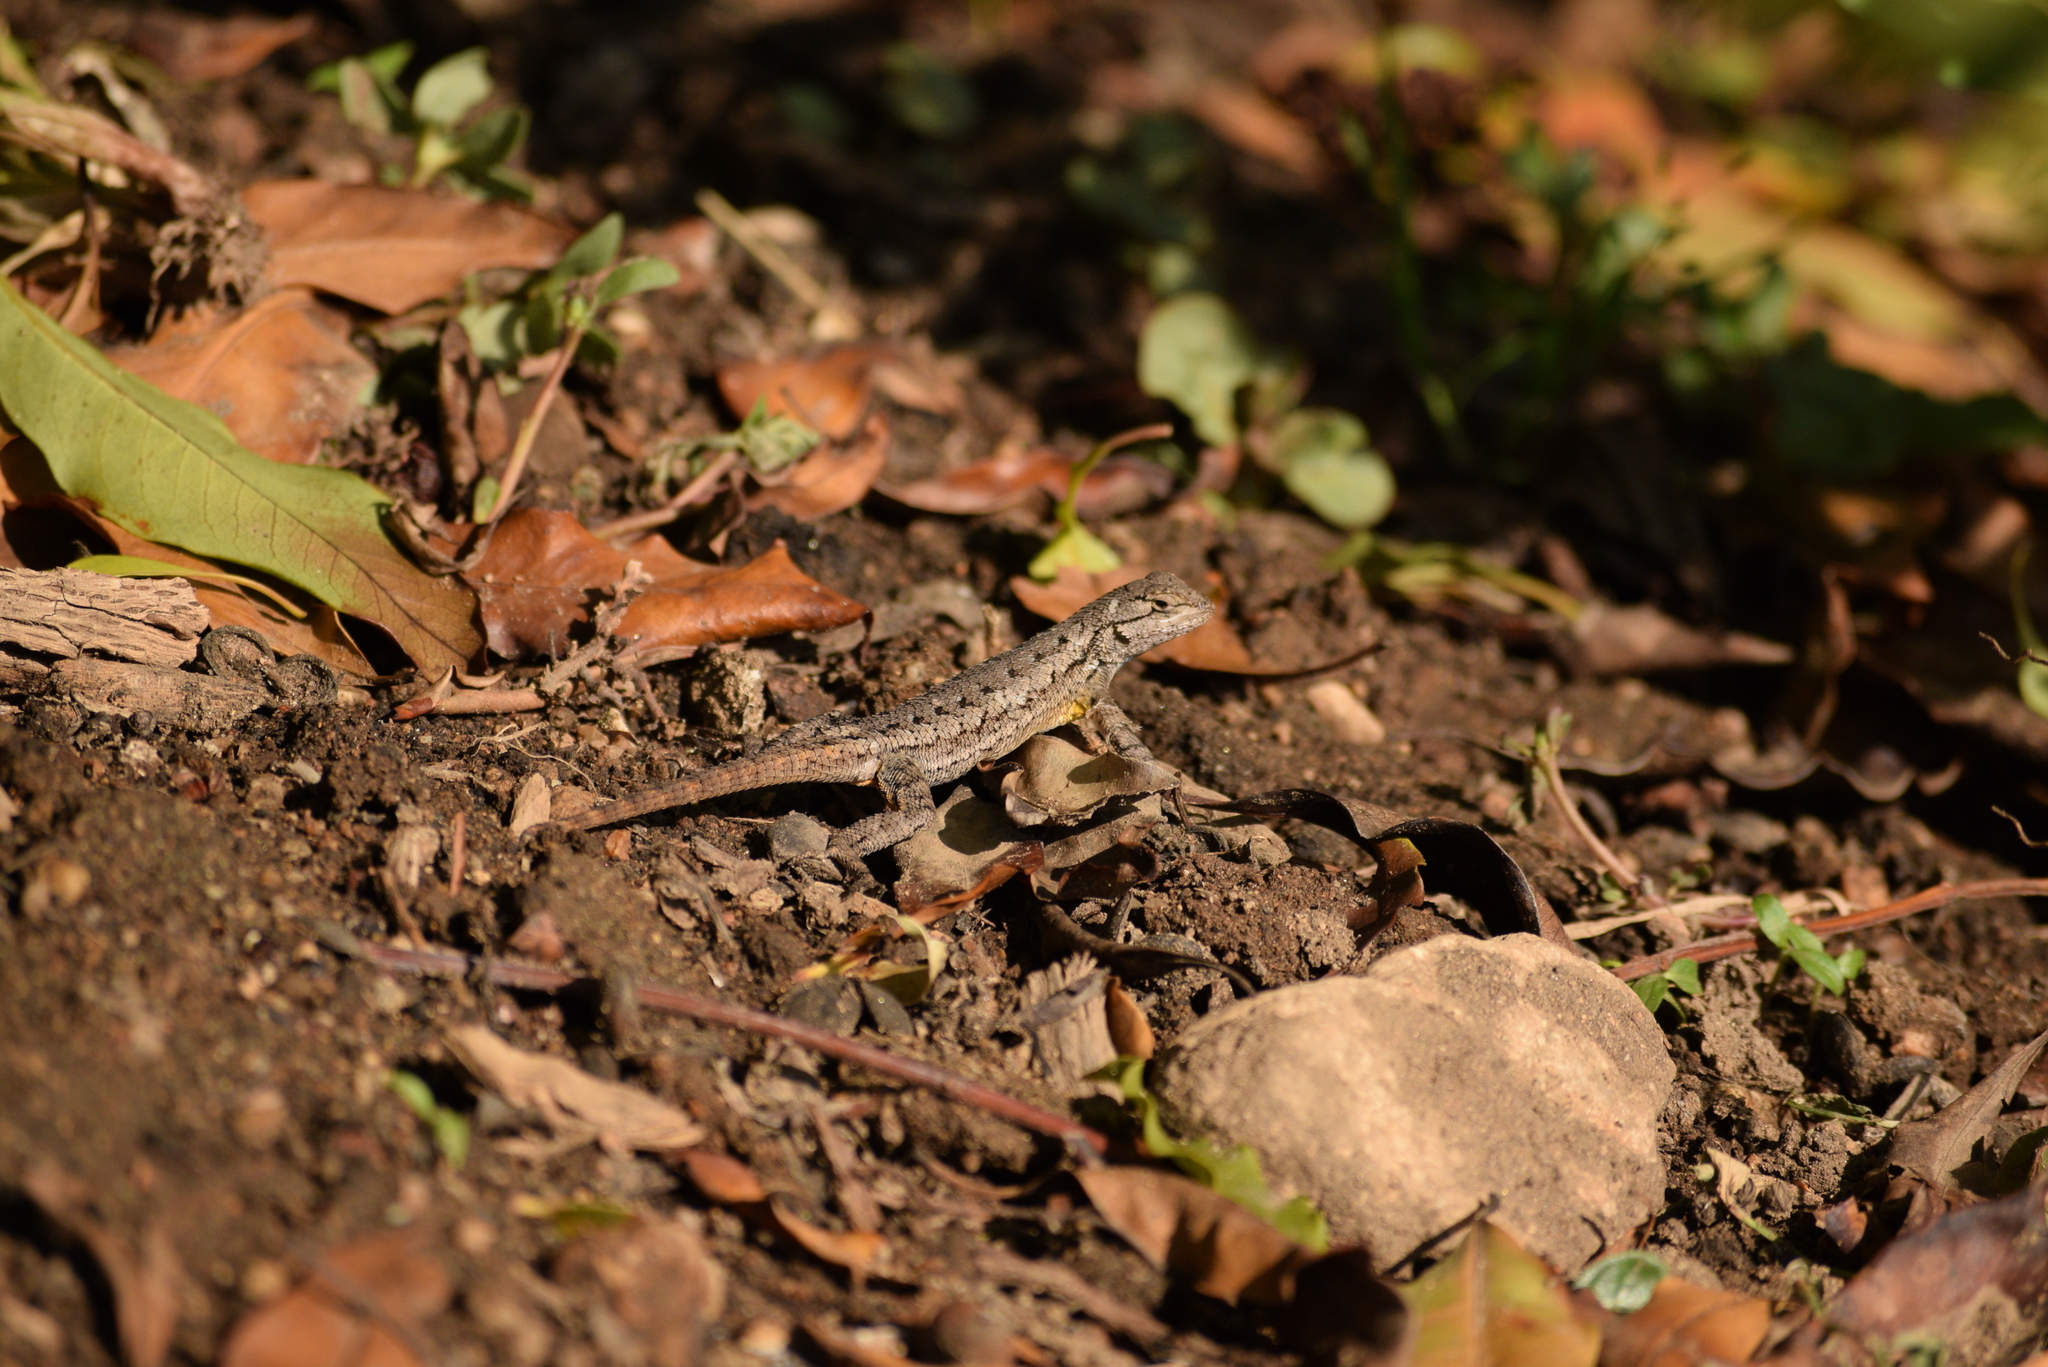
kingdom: Animalia
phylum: Chordata
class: Squamata
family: Phrynosomatidae
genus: Sceloporus
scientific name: Sceloporus occidentalis
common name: Western fence lizard
